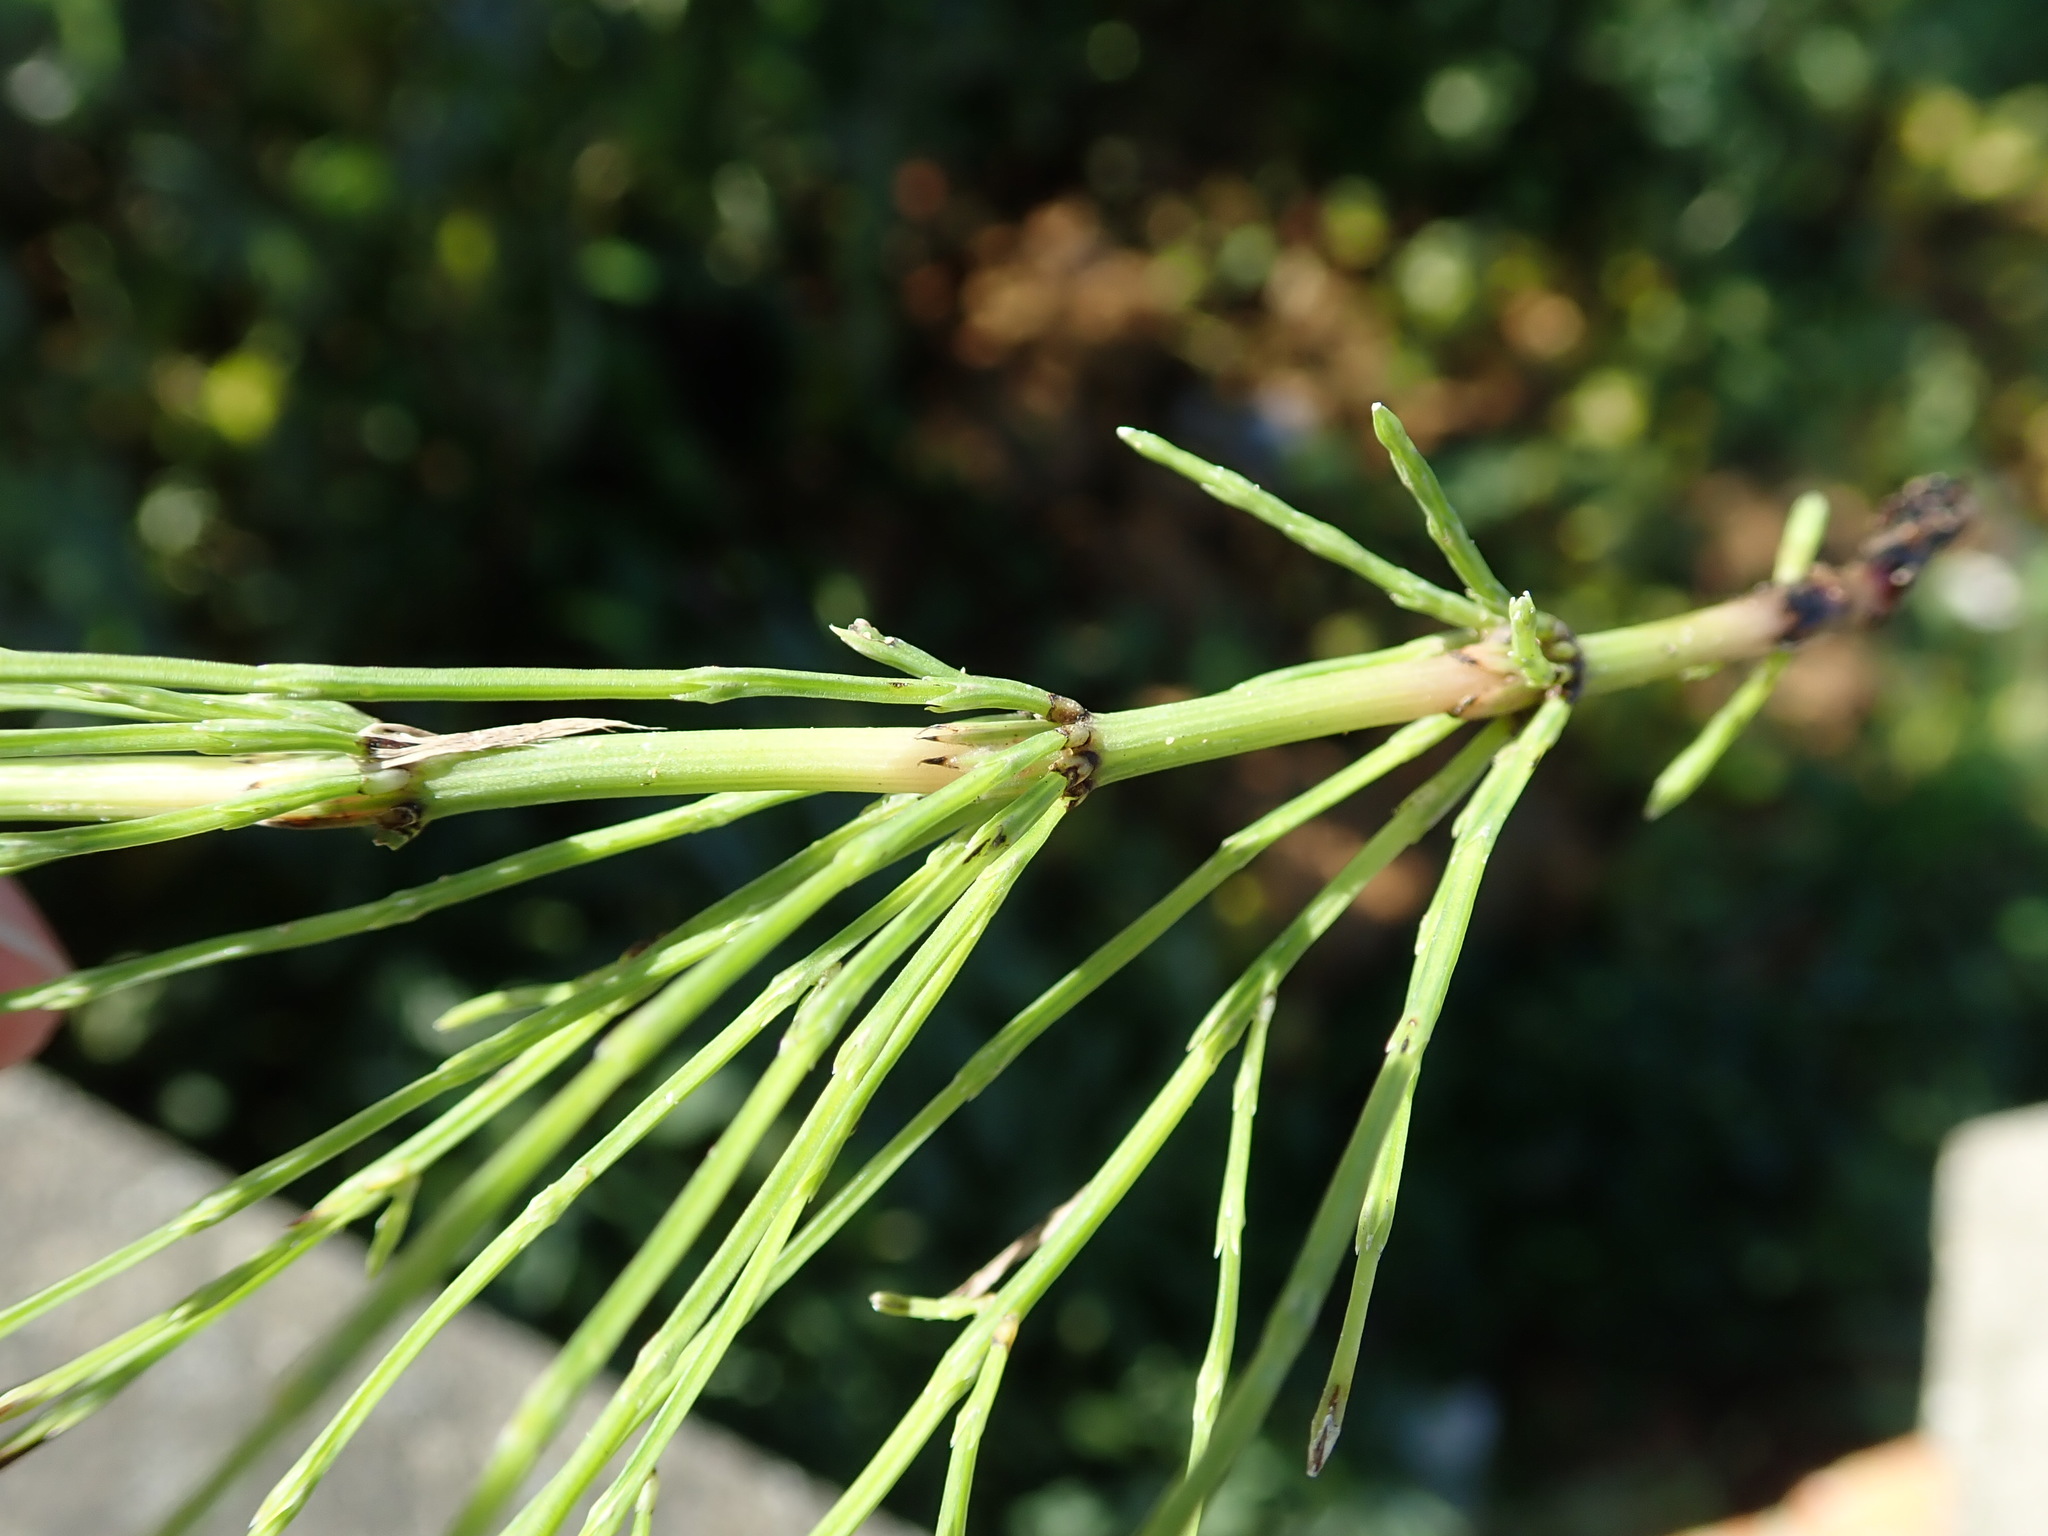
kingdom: Plantae
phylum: Tracheophyta
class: Polypodiopsida
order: Equisetales
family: Equisetaceae
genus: Equisetum
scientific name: Equisetum arvense
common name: Field horsetail
